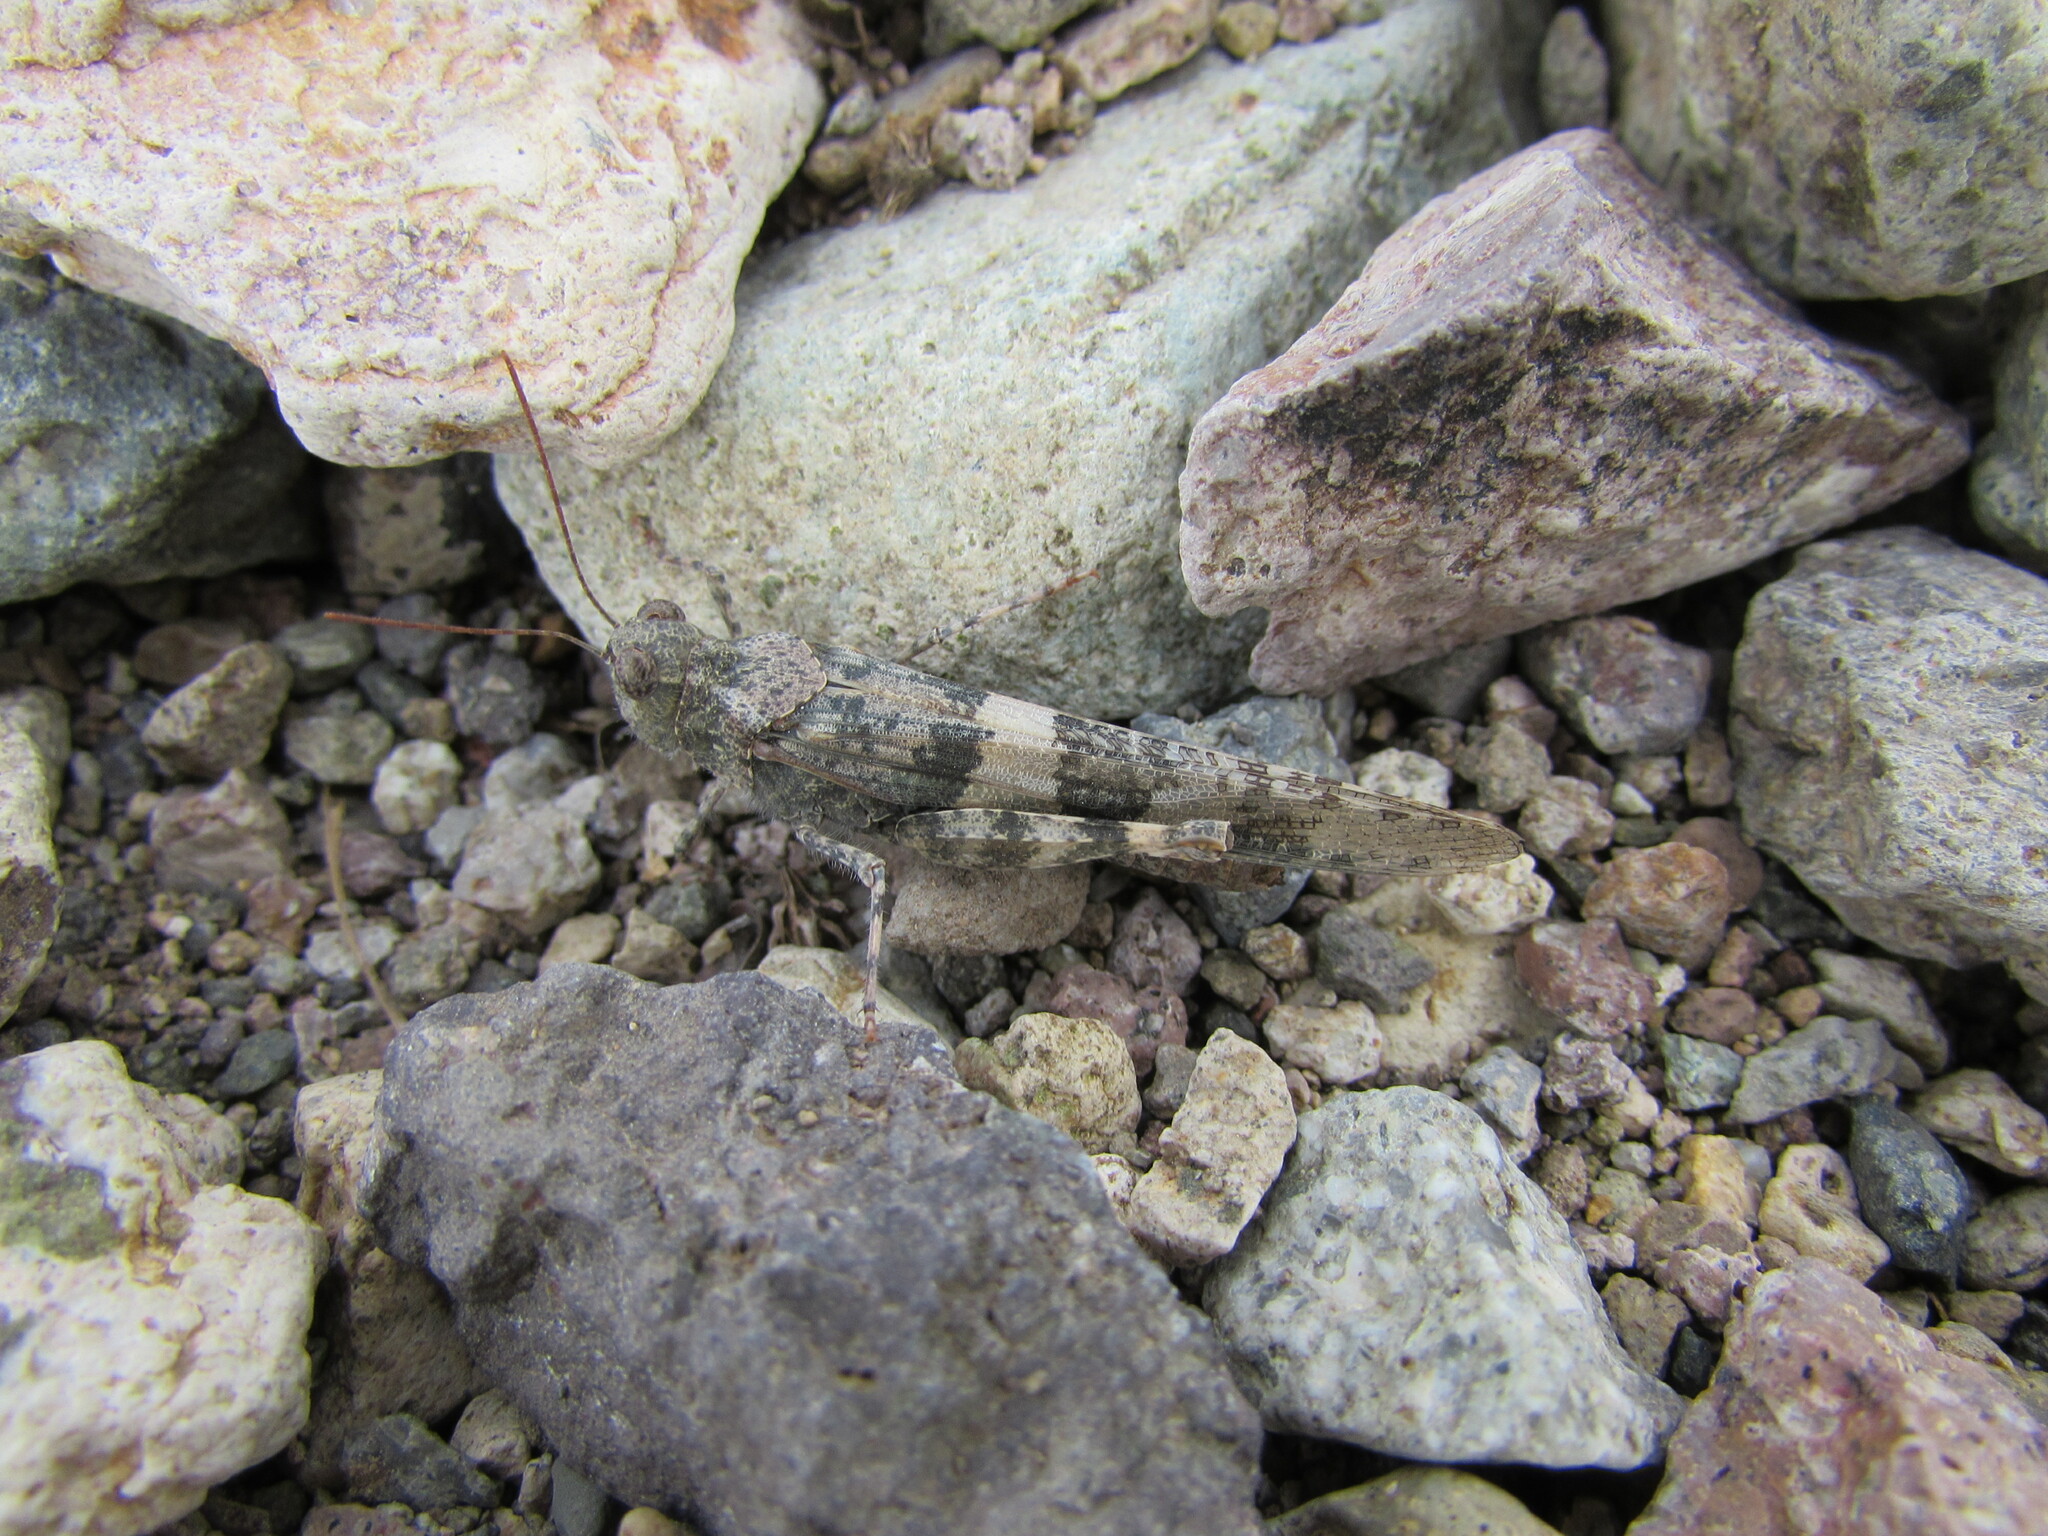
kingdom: Animalia
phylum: Arthropoda
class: Insecta
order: Orthoptera
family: Acrididae
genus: Trimerotropis
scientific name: Trimerotropis pallidipennis
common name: Pallid-winged grasshopper
